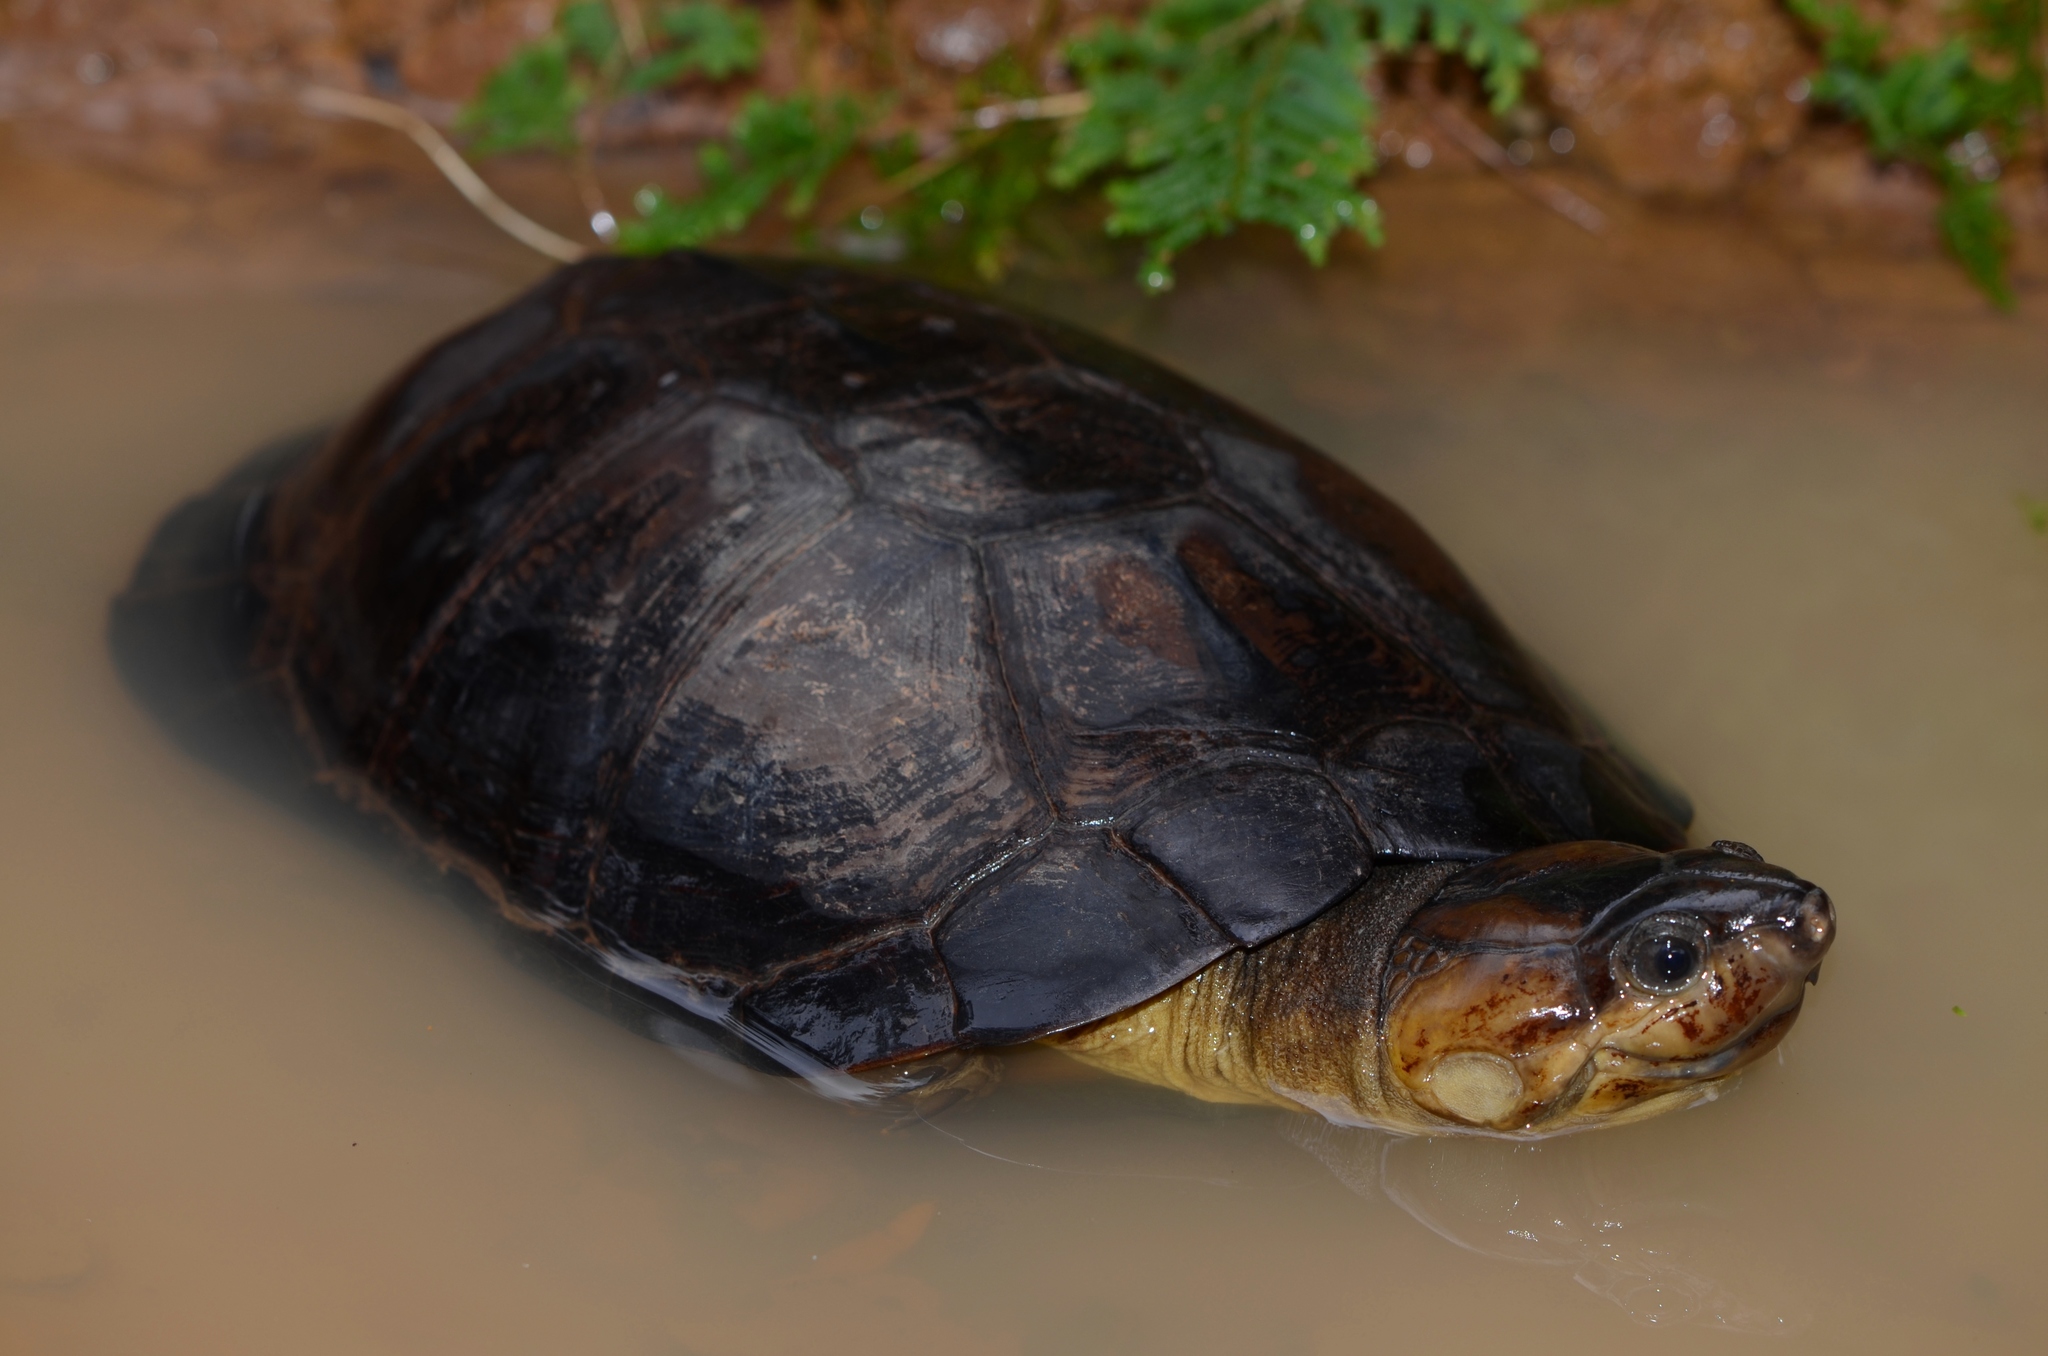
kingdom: Animalia
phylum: Chordata
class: Testudines
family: Pelomedusidae
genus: Pelusios
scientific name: Pelusios gabonensis
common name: African forest turtle
